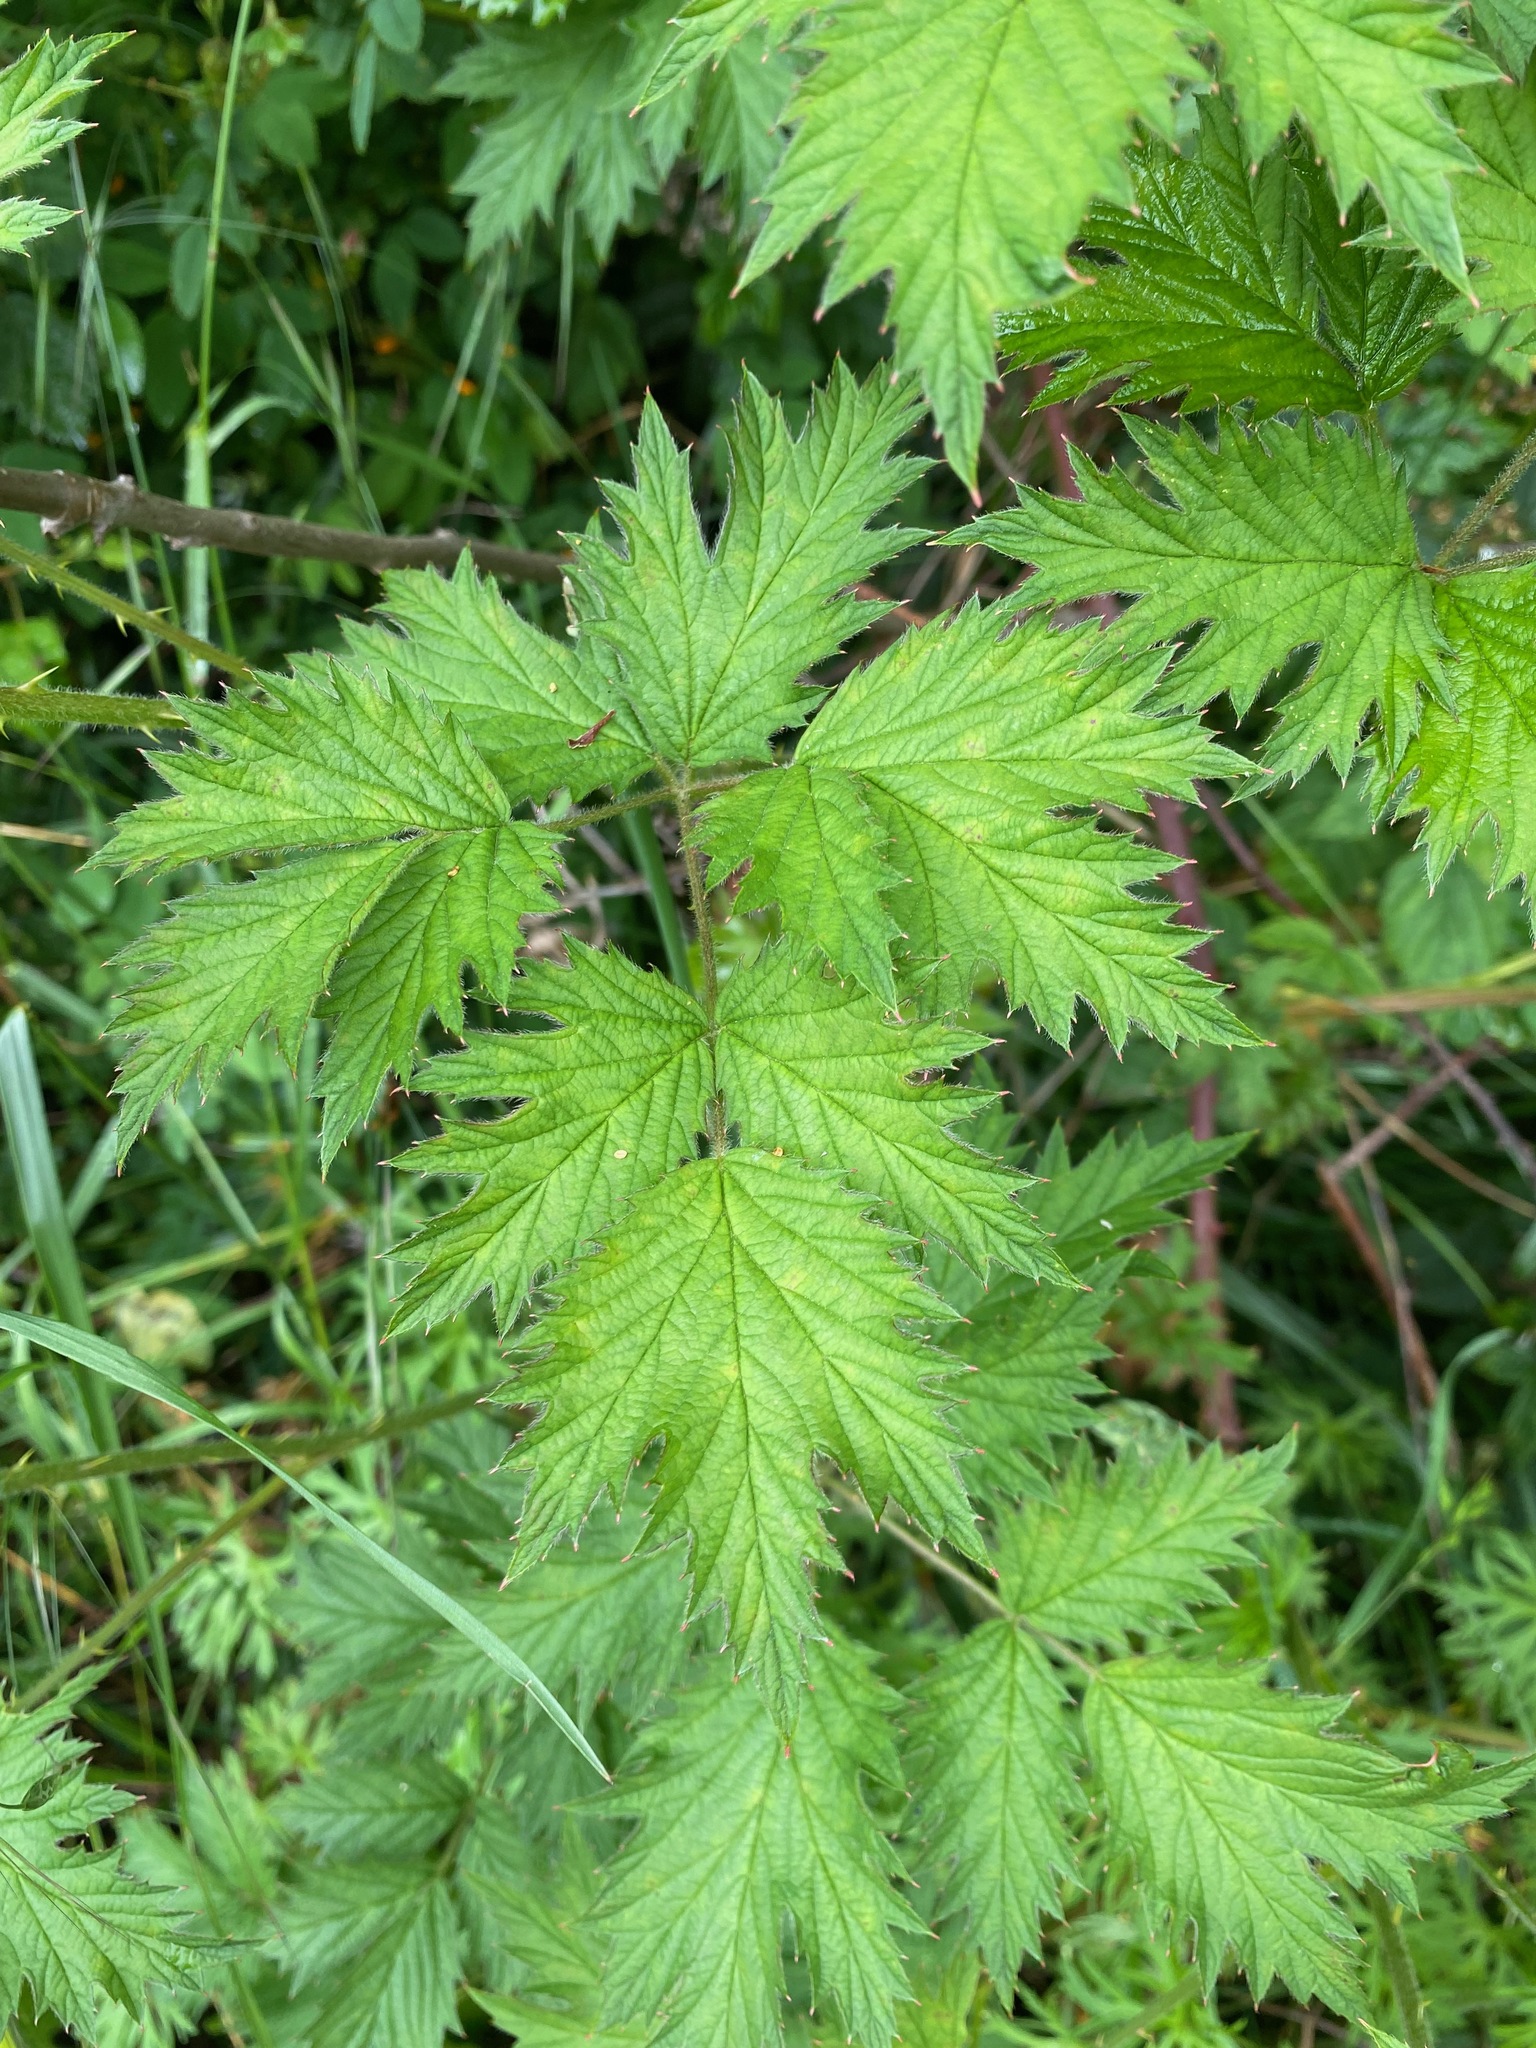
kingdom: Plantae
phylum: Tracheophyta
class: Magnoliopsida
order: Rosales
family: Rosaceae
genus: Rubus
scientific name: Rubus laciniatus
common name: Evergreen blackberry
